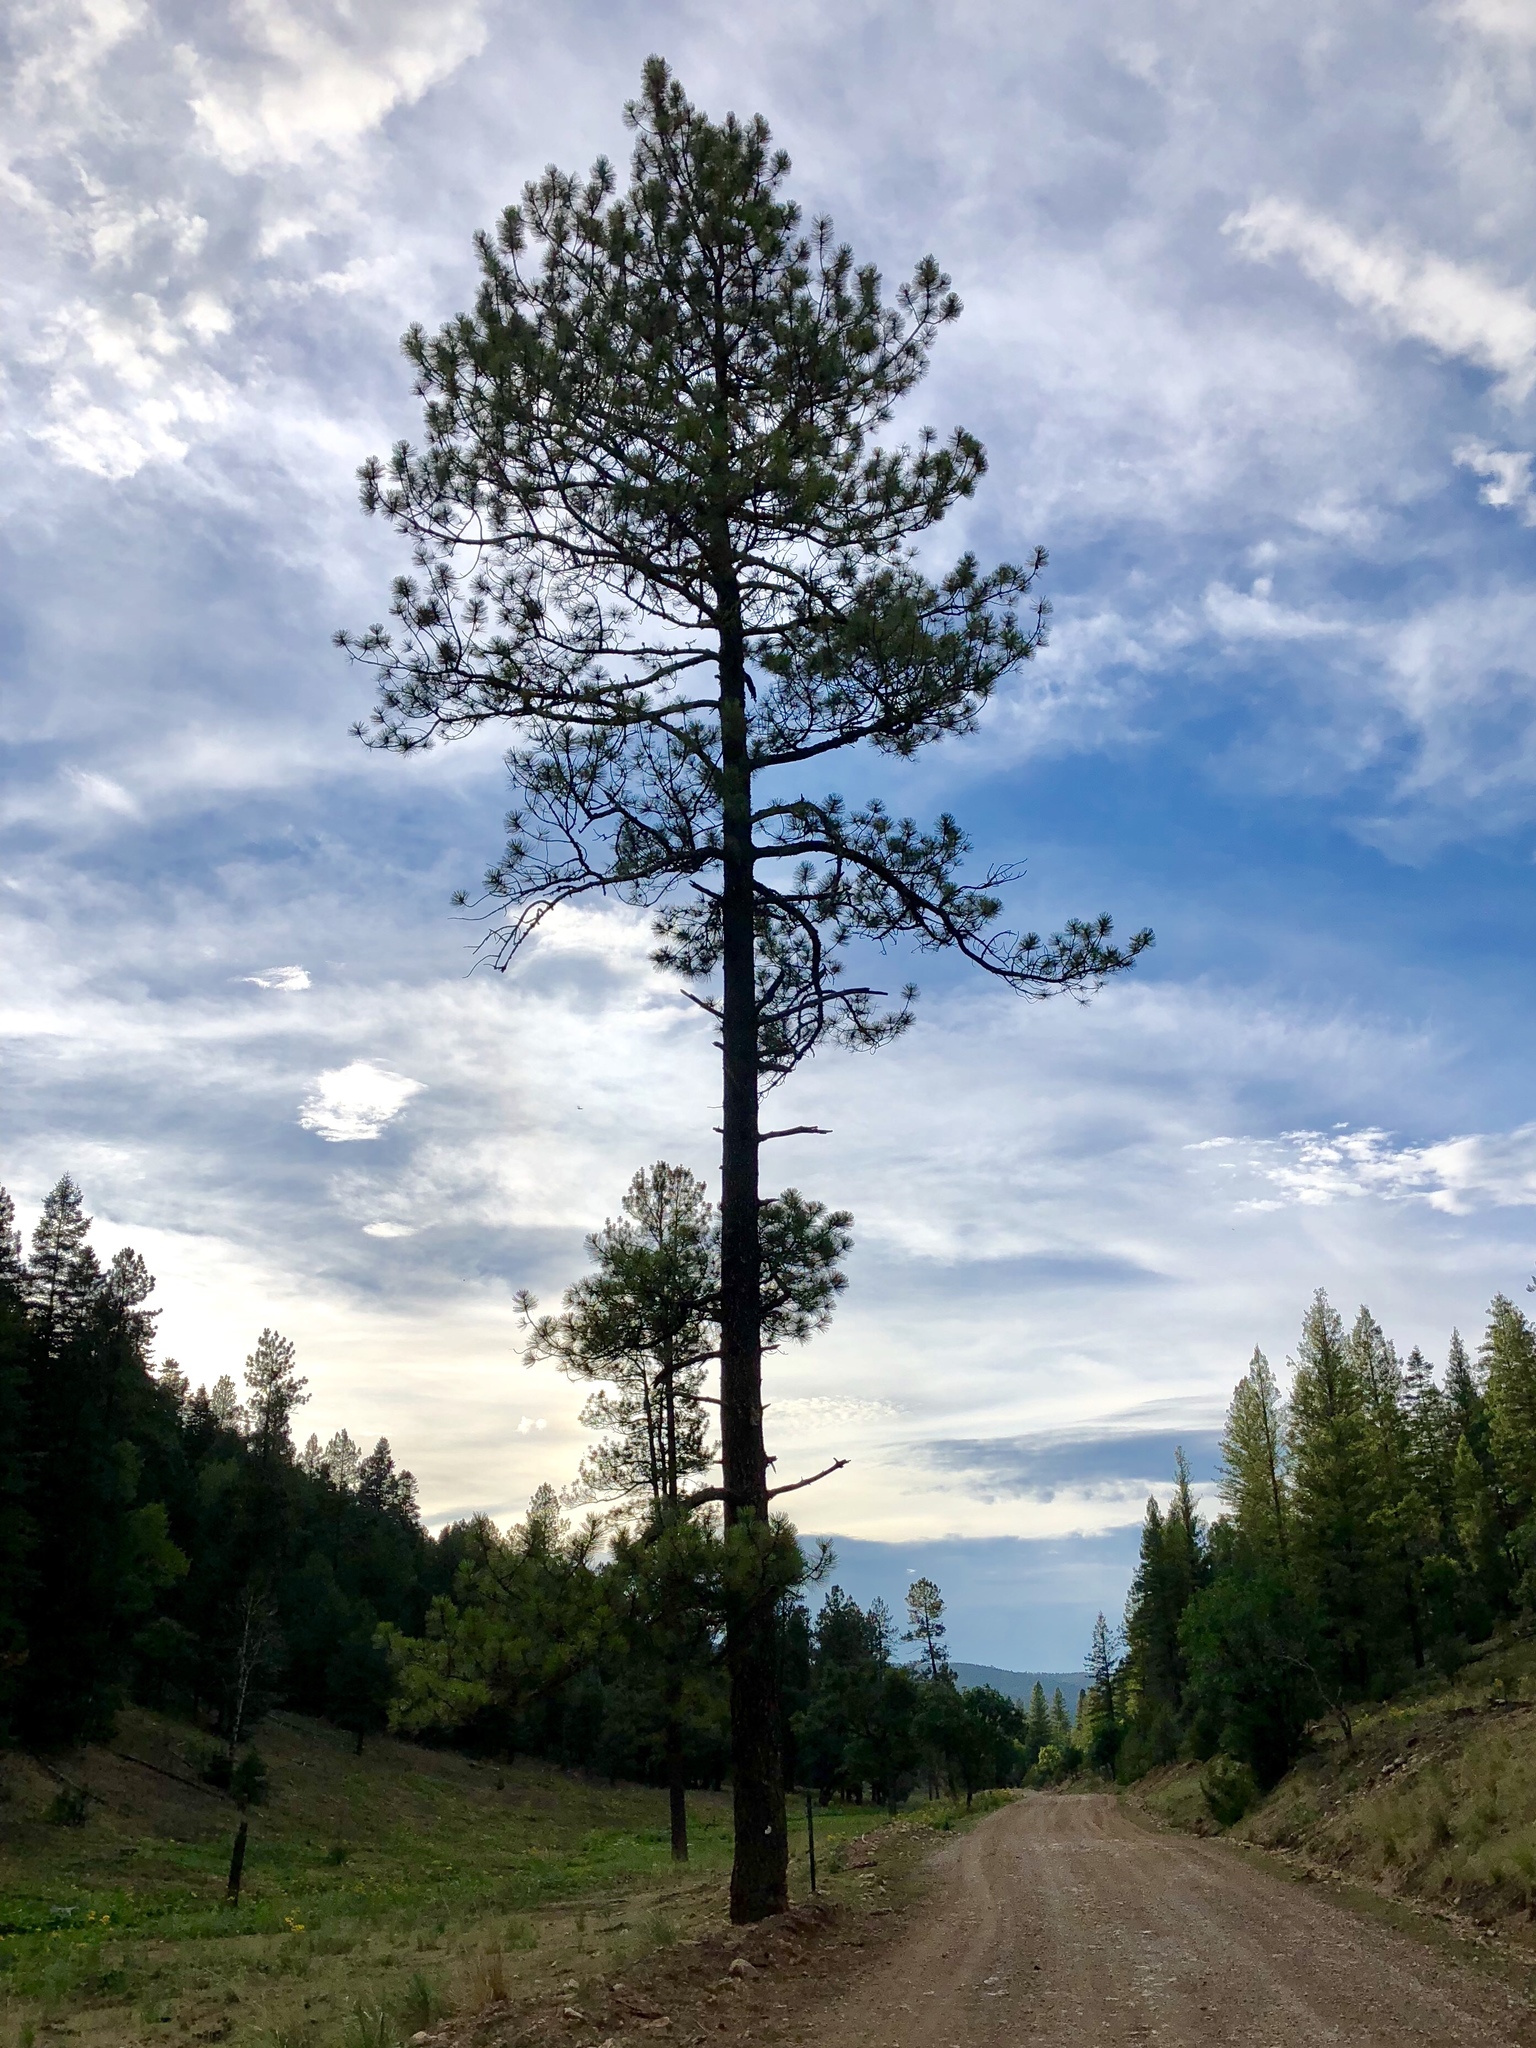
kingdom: Plantae
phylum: Tracheophyta
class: Pinopsida
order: Pinales
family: Pinaceae
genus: Pinus
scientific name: Pinus ponderosa
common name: Western yellow-pine
